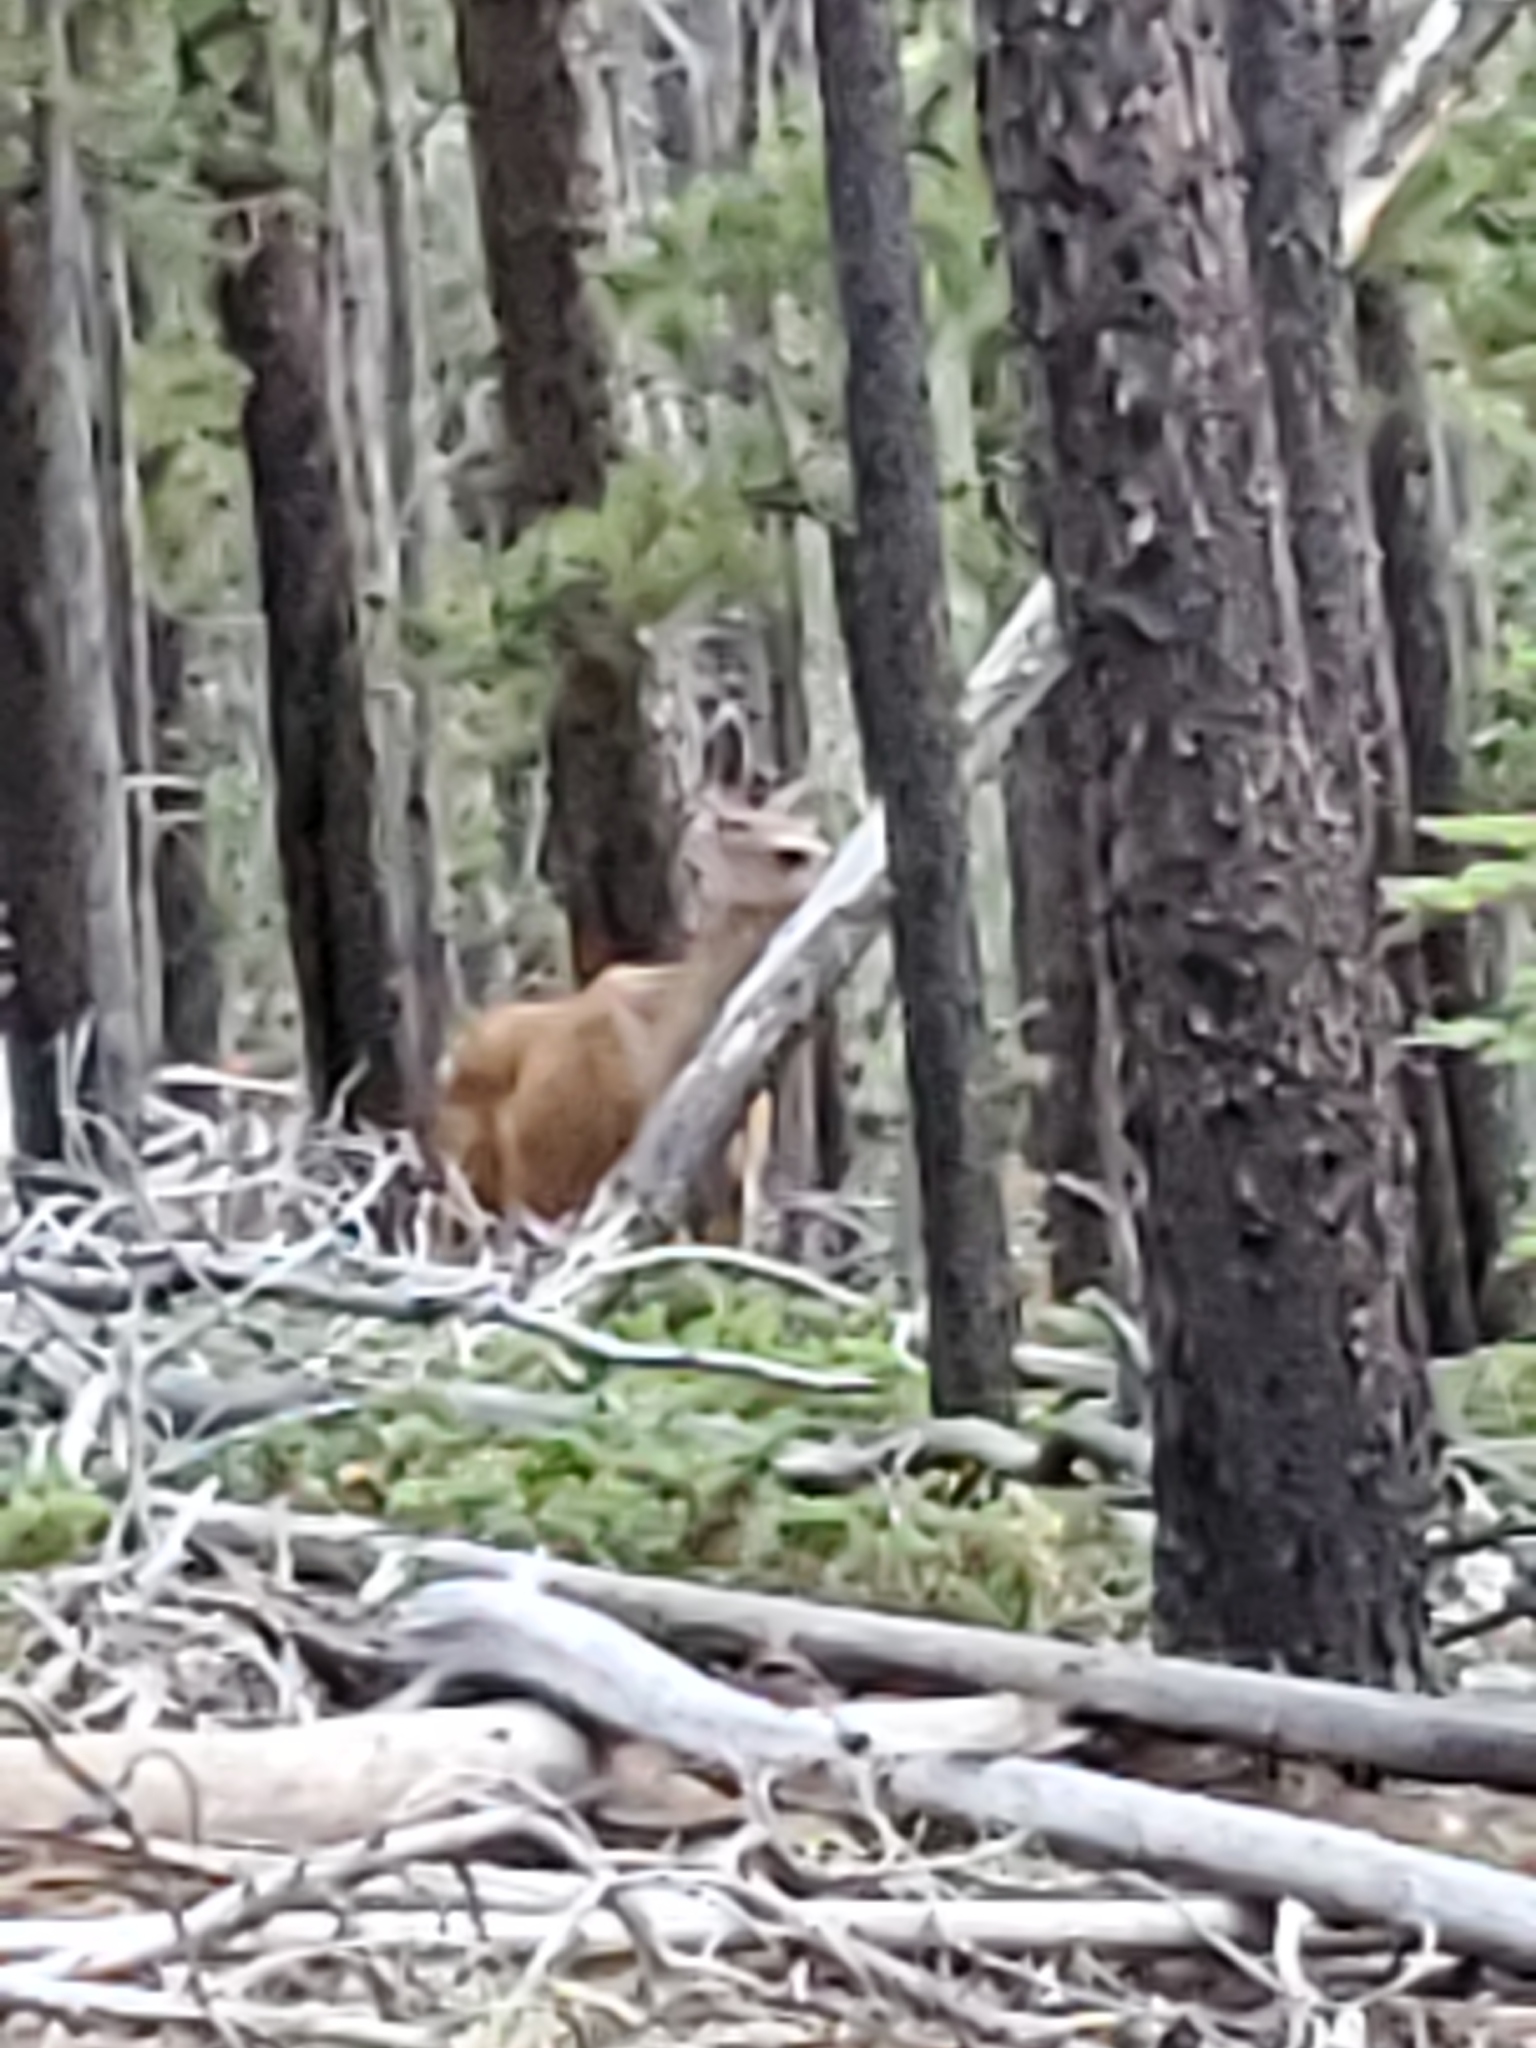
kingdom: Animalia
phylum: Chordata
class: Mammalia
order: Artiodactyla
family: Cervidae
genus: Odocoileus
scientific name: Odocoileus hemionus
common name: Mule deer
